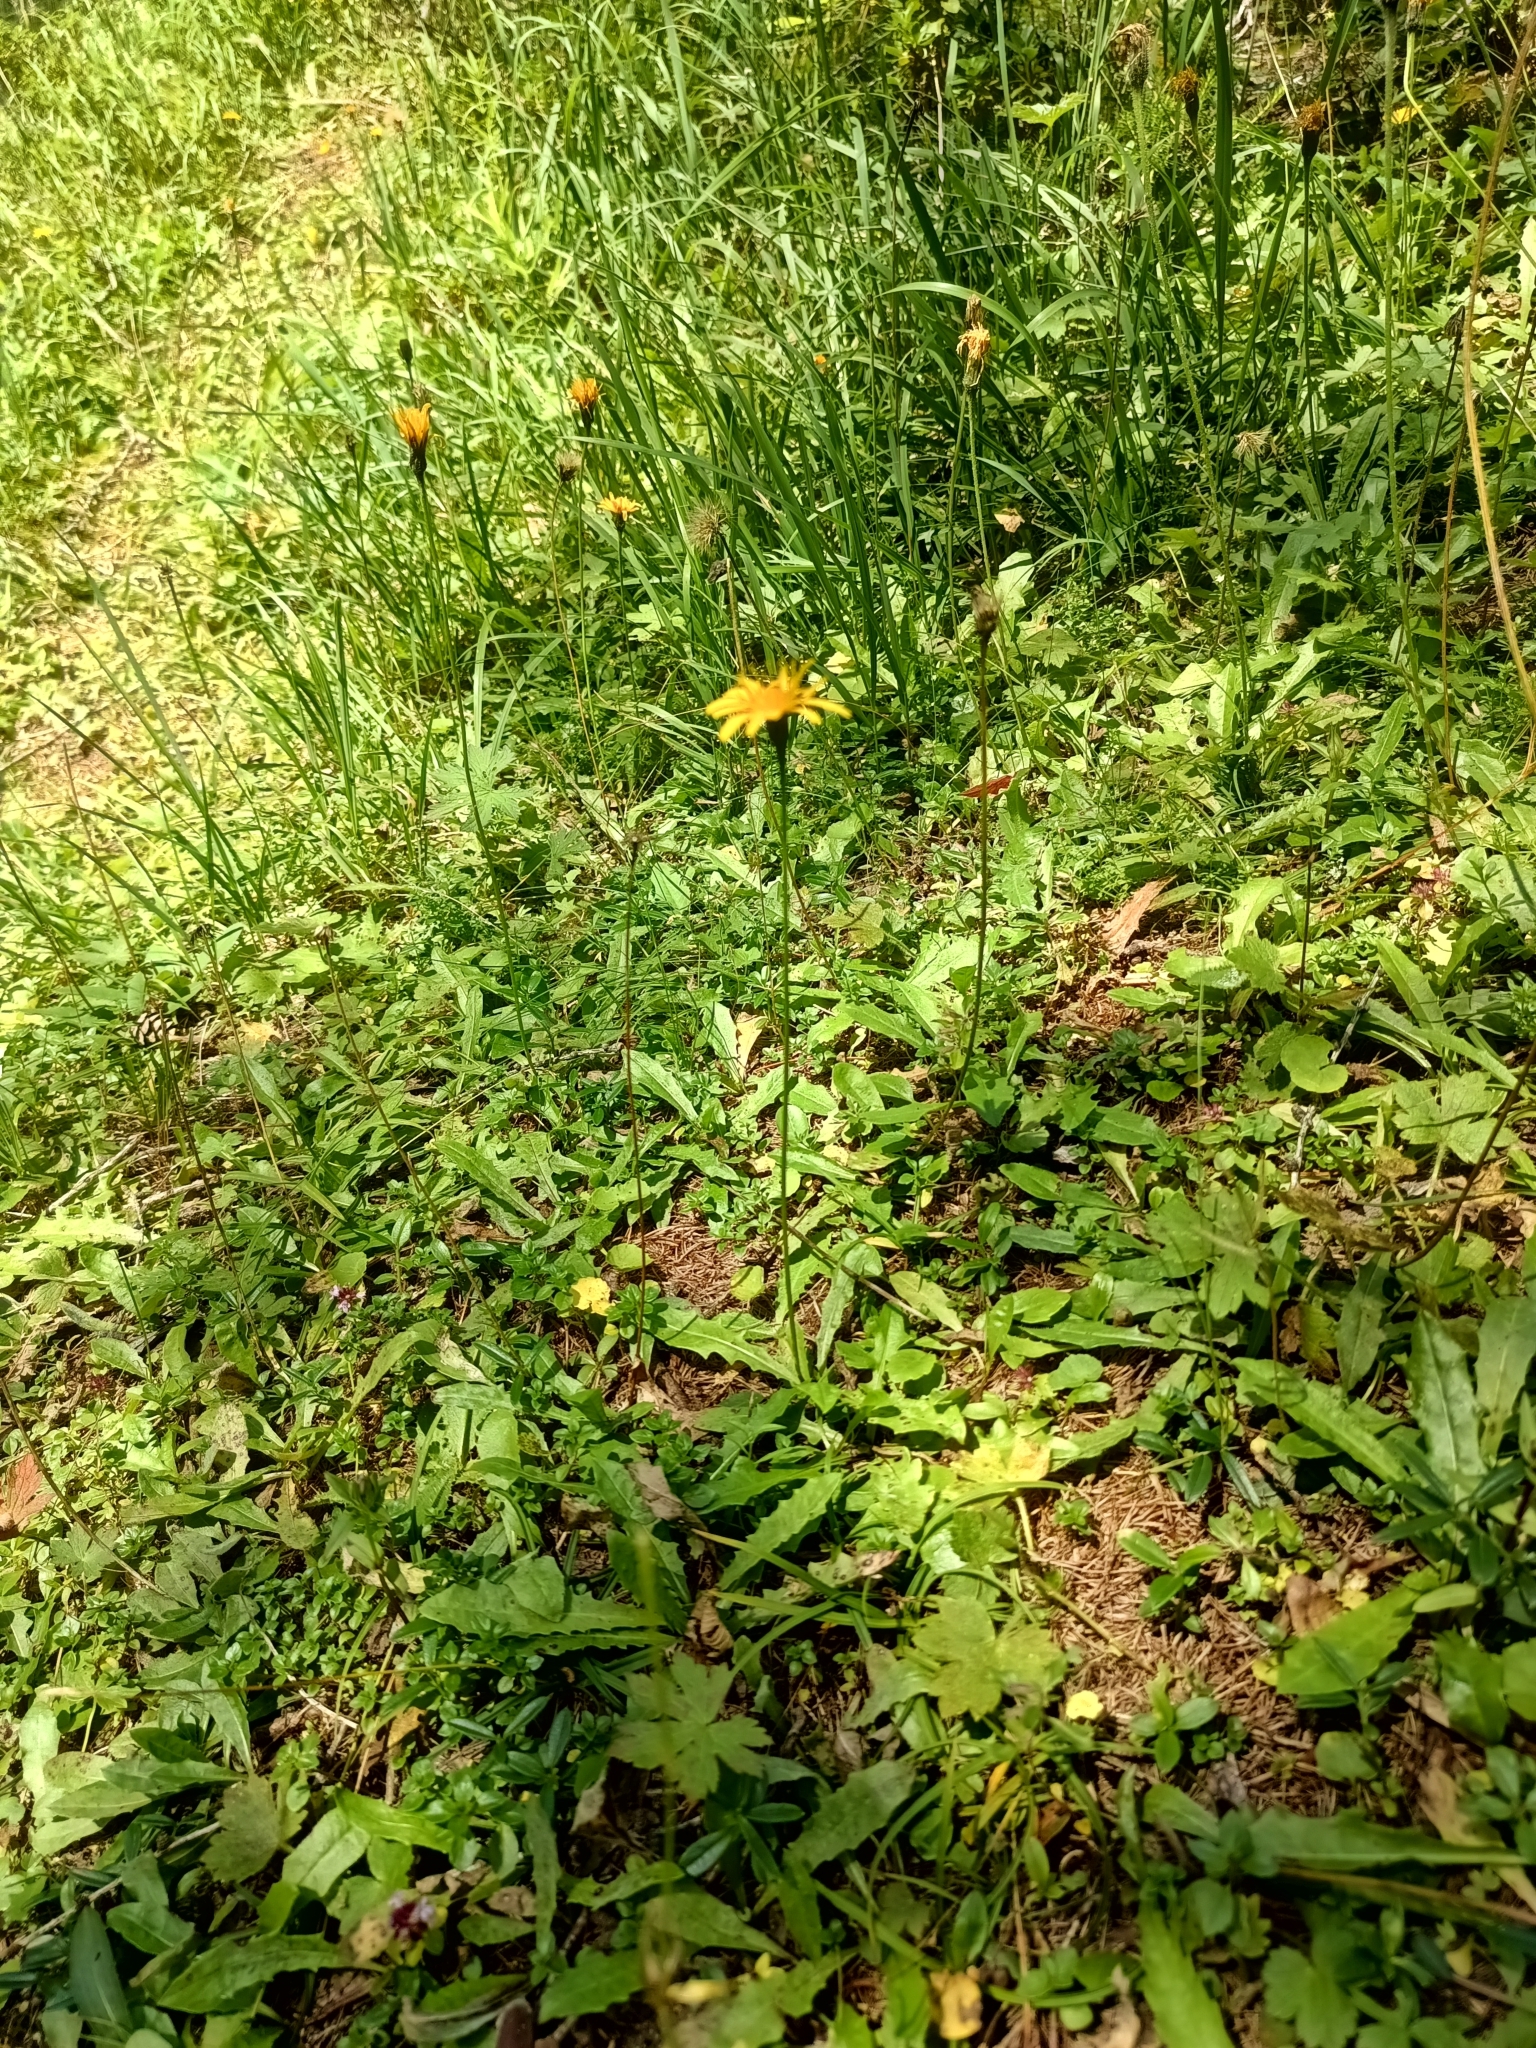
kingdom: Plantae
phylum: Tracheophyta
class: Magnoliopsida
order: Asterales
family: Asteraceae
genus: Leontodon
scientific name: Leontodon hispidus
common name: Rough hawkbit
